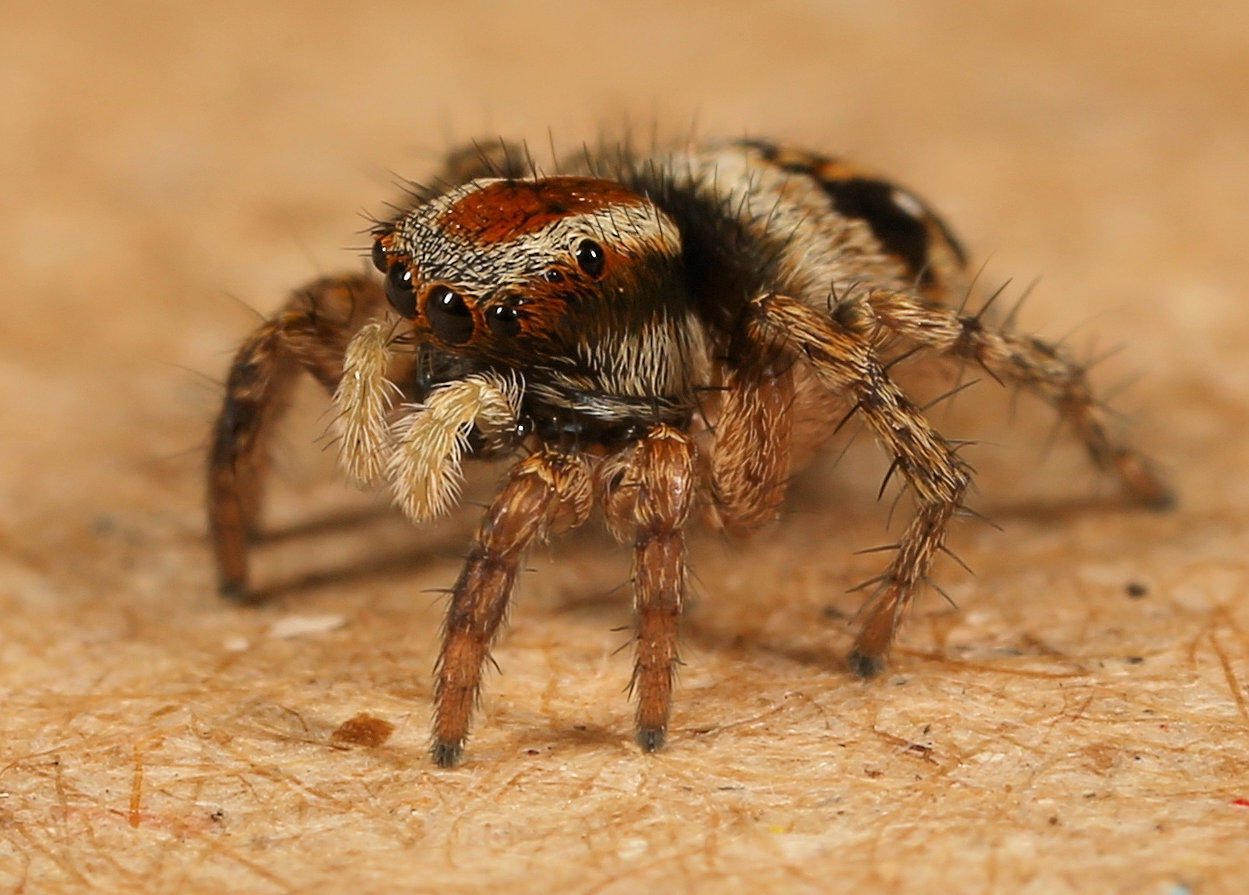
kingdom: Animalia
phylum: Arthropoda
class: Arachnida
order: Araneae
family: Salticidae
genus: Stenaelurillus
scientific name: Stenaelurillus guttiger
